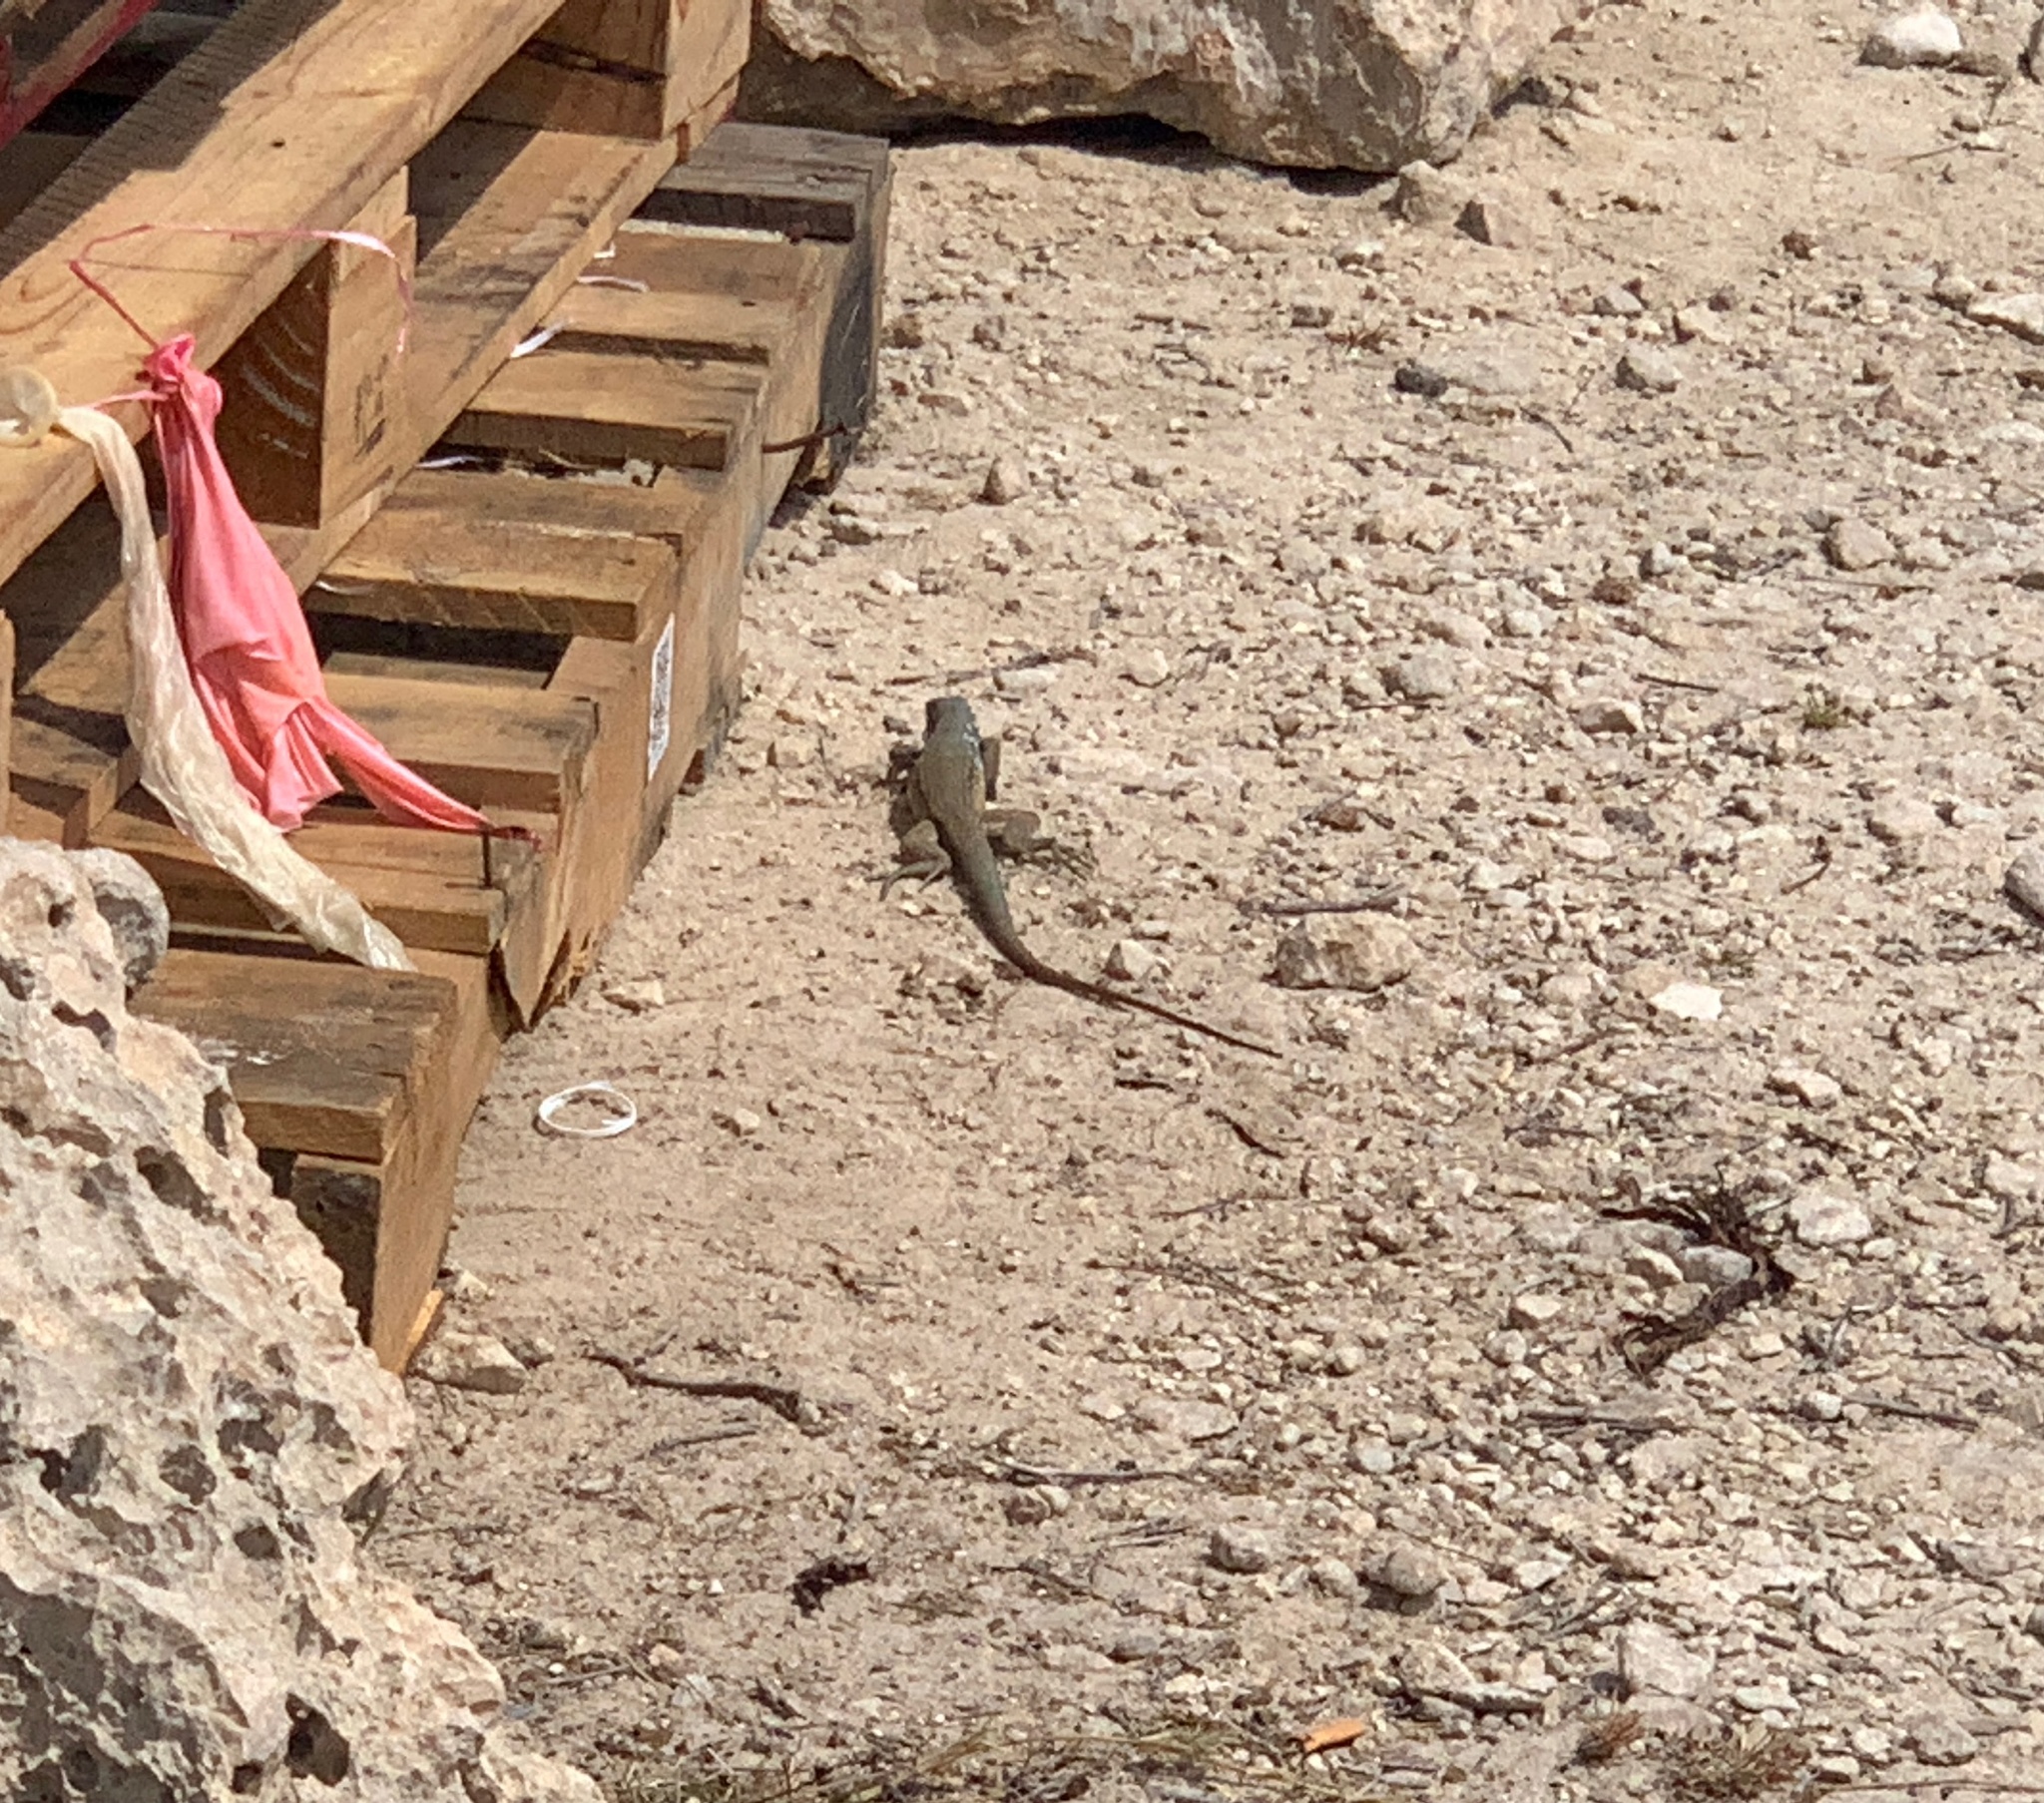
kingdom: Animalia
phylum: Chordata
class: Squamata
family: Teiidae
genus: Cnemidophorus
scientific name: Cnemidophorus ruthveni
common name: Bonaire whiptail
